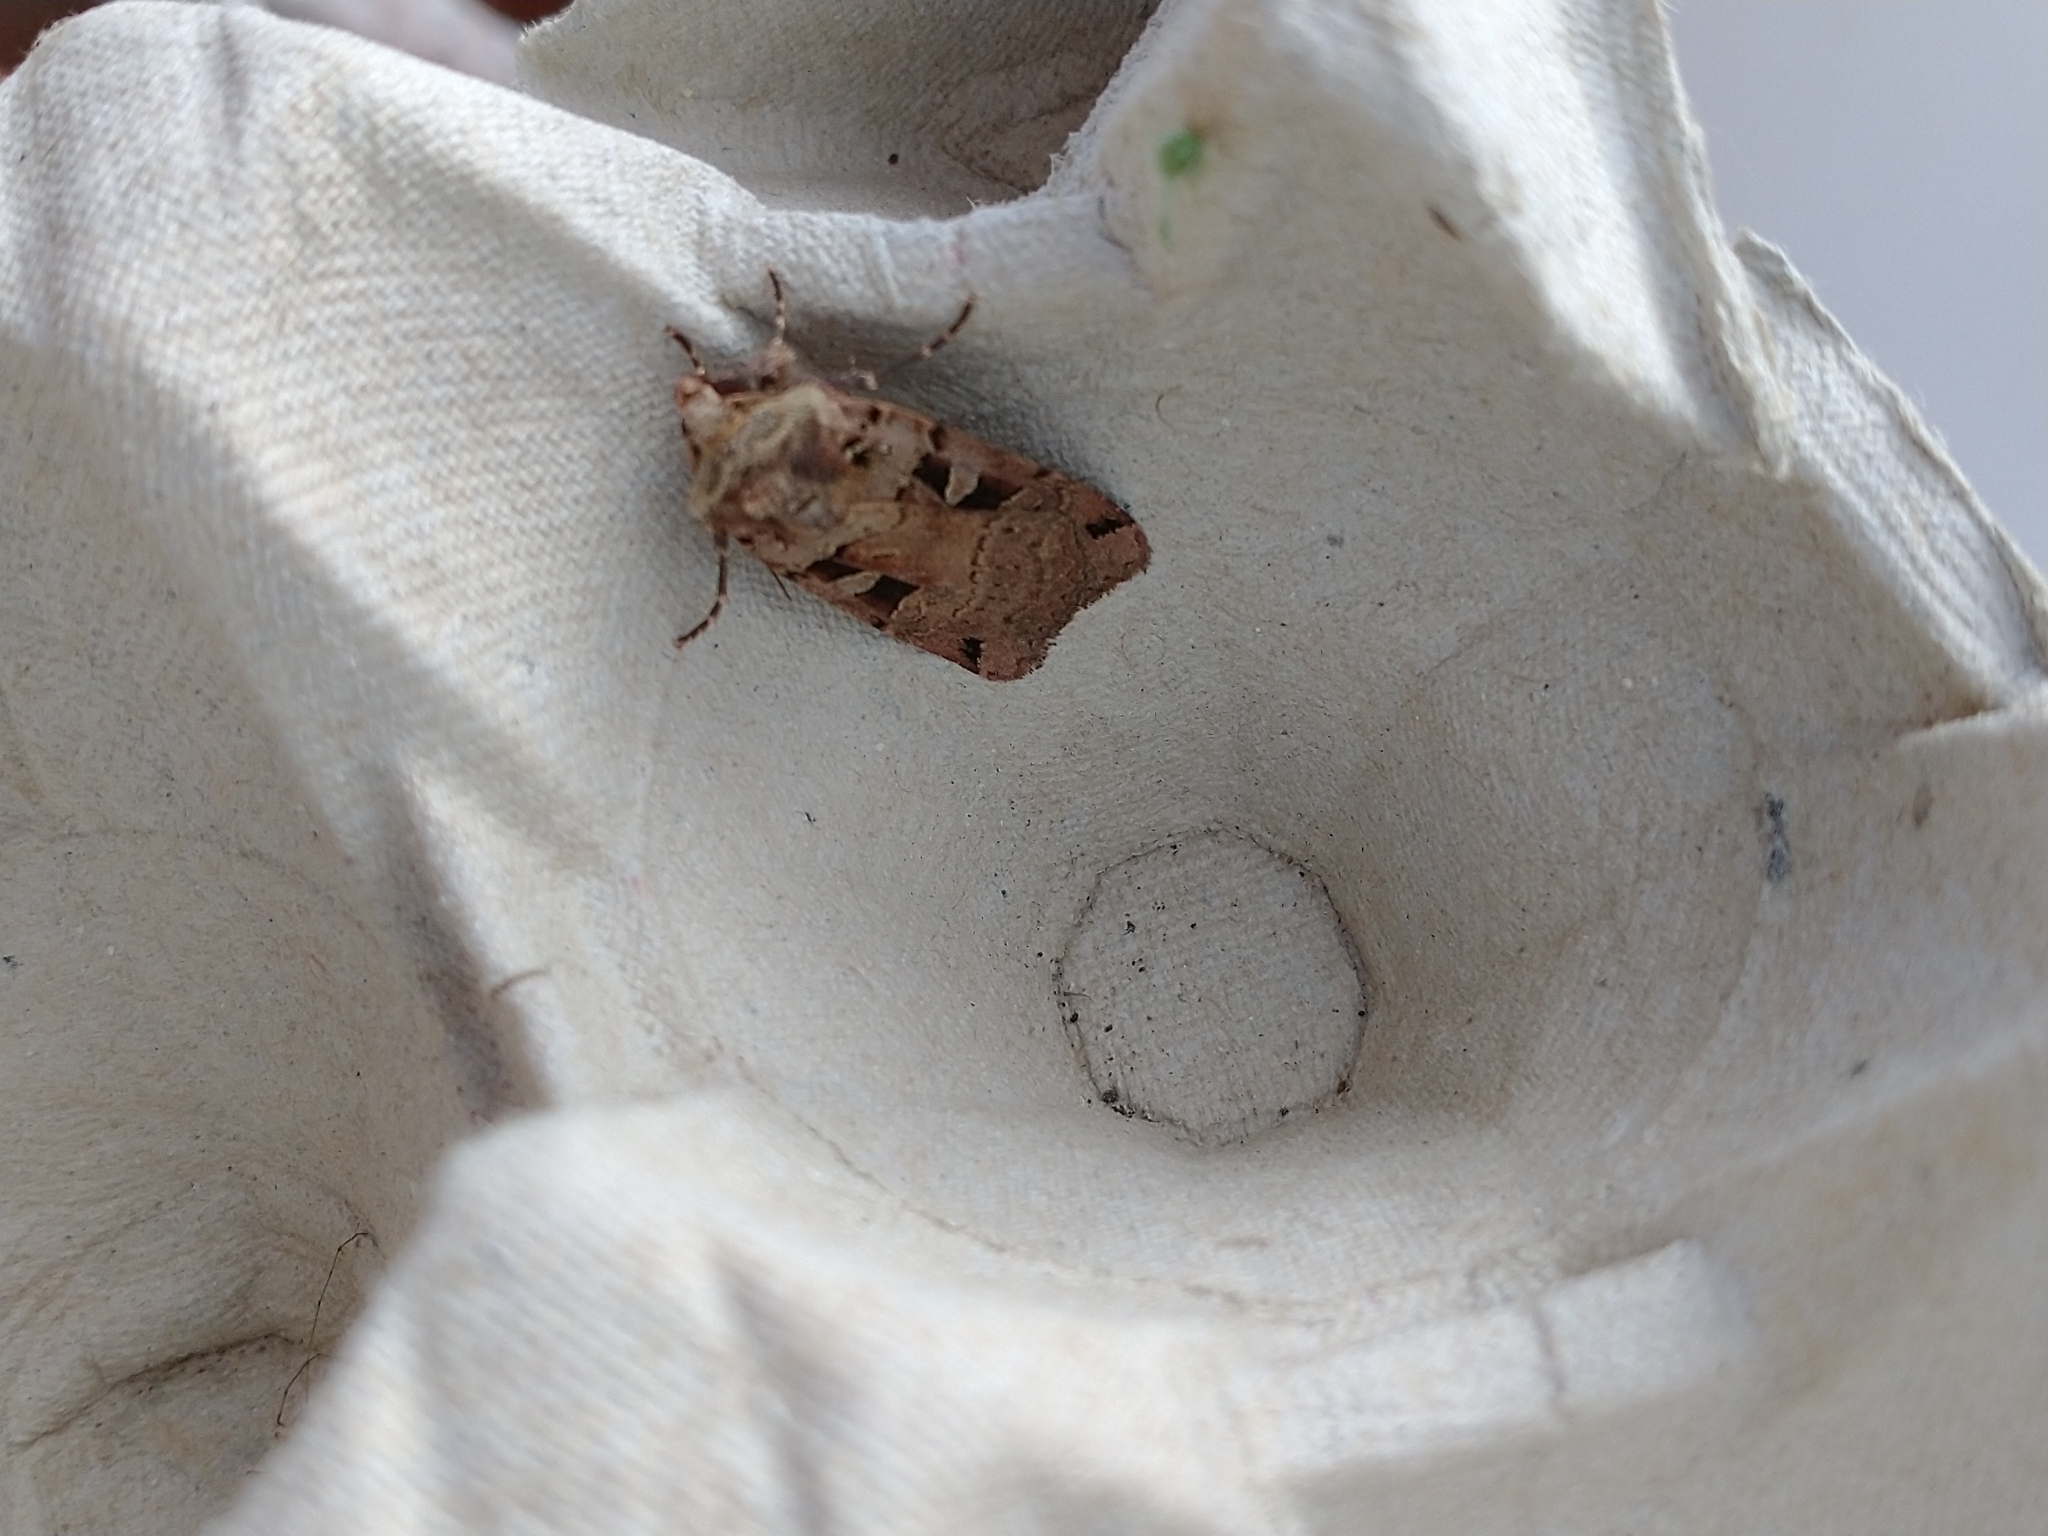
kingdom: Animalia
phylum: Arthropoda
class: Insecta
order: Lepidoptera
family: Noctuidae
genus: Xestia
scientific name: Xestia triangulum
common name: Double square-spot
